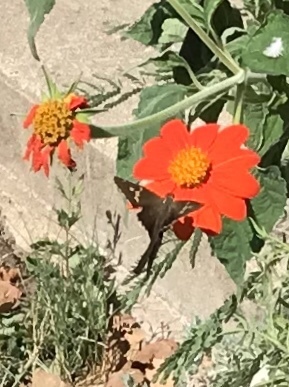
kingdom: Animalia
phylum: Arthropoda
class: Insecta
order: Lepidoptera
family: Hesperiidae
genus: Chioides
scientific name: Chioides catillus
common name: Silverbanded skipper
